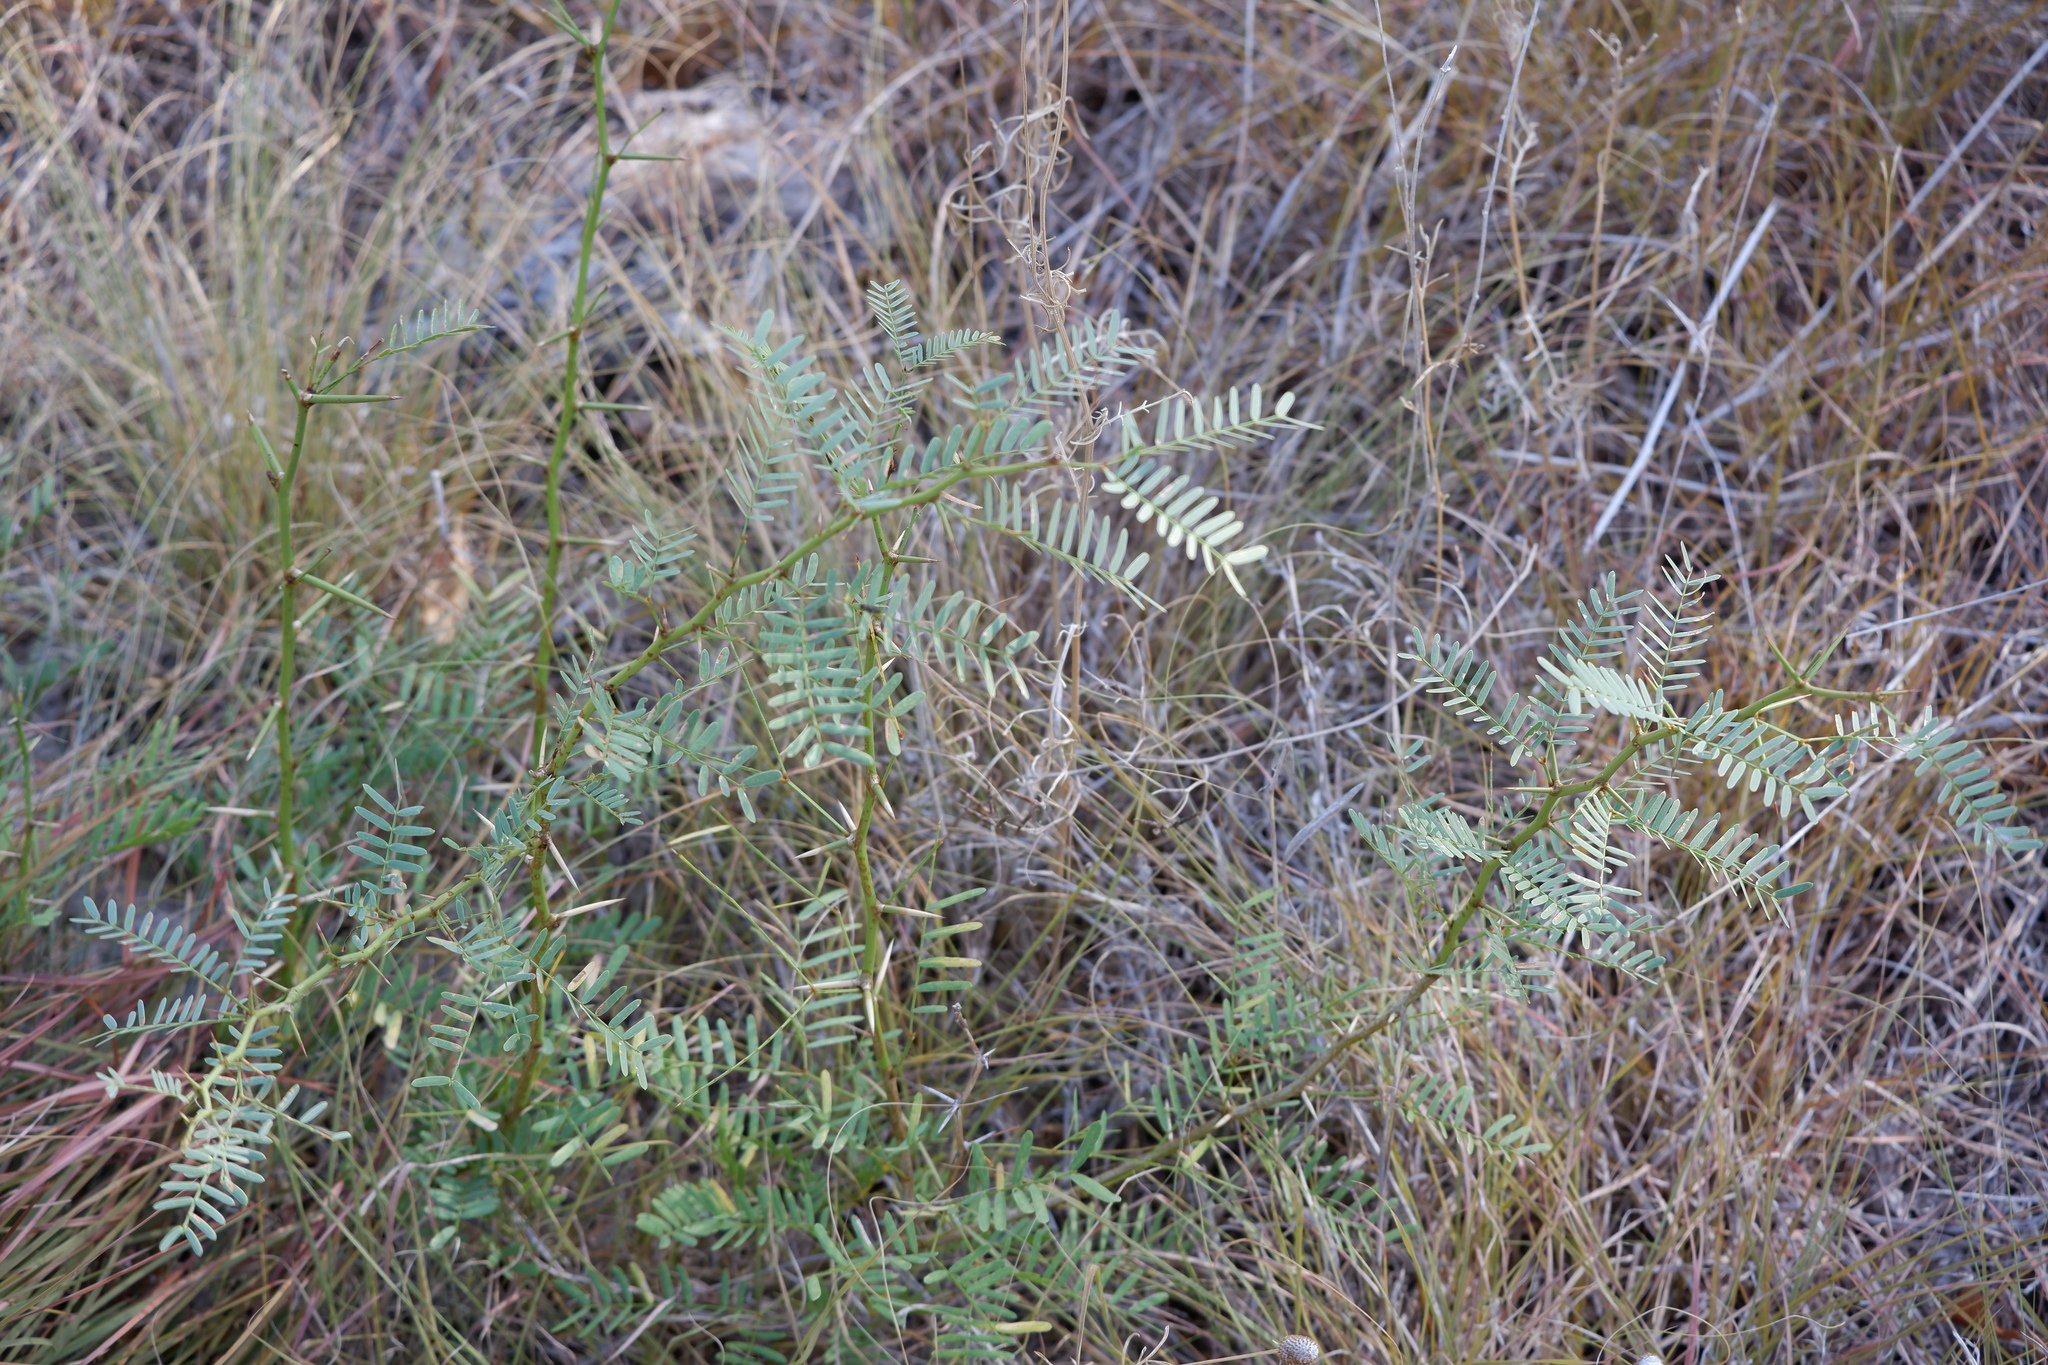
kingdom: Plantae
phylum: Tracheophyta
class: Magnoliopsida
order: Fabales
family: Fabaceae
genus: Prosopis
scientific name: Prosopis glandulosa
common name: Honey mesquite
